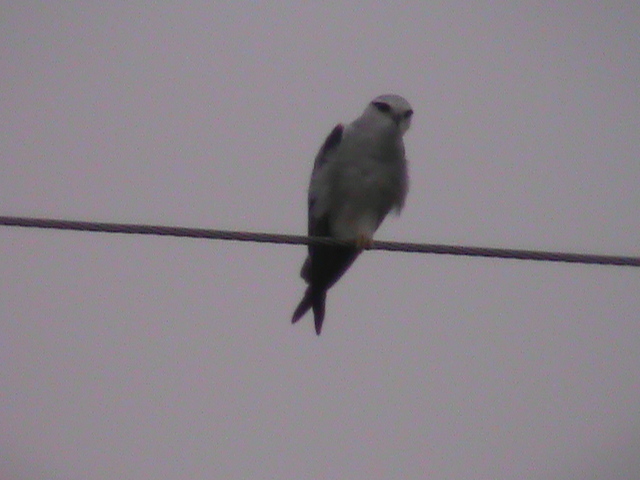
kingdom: Animalia
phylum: Chordata
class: Aves
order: Accipitriformes
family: Accipitridae
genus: Elanus
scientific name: Elanus caeruleus
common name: Black-winged kite
